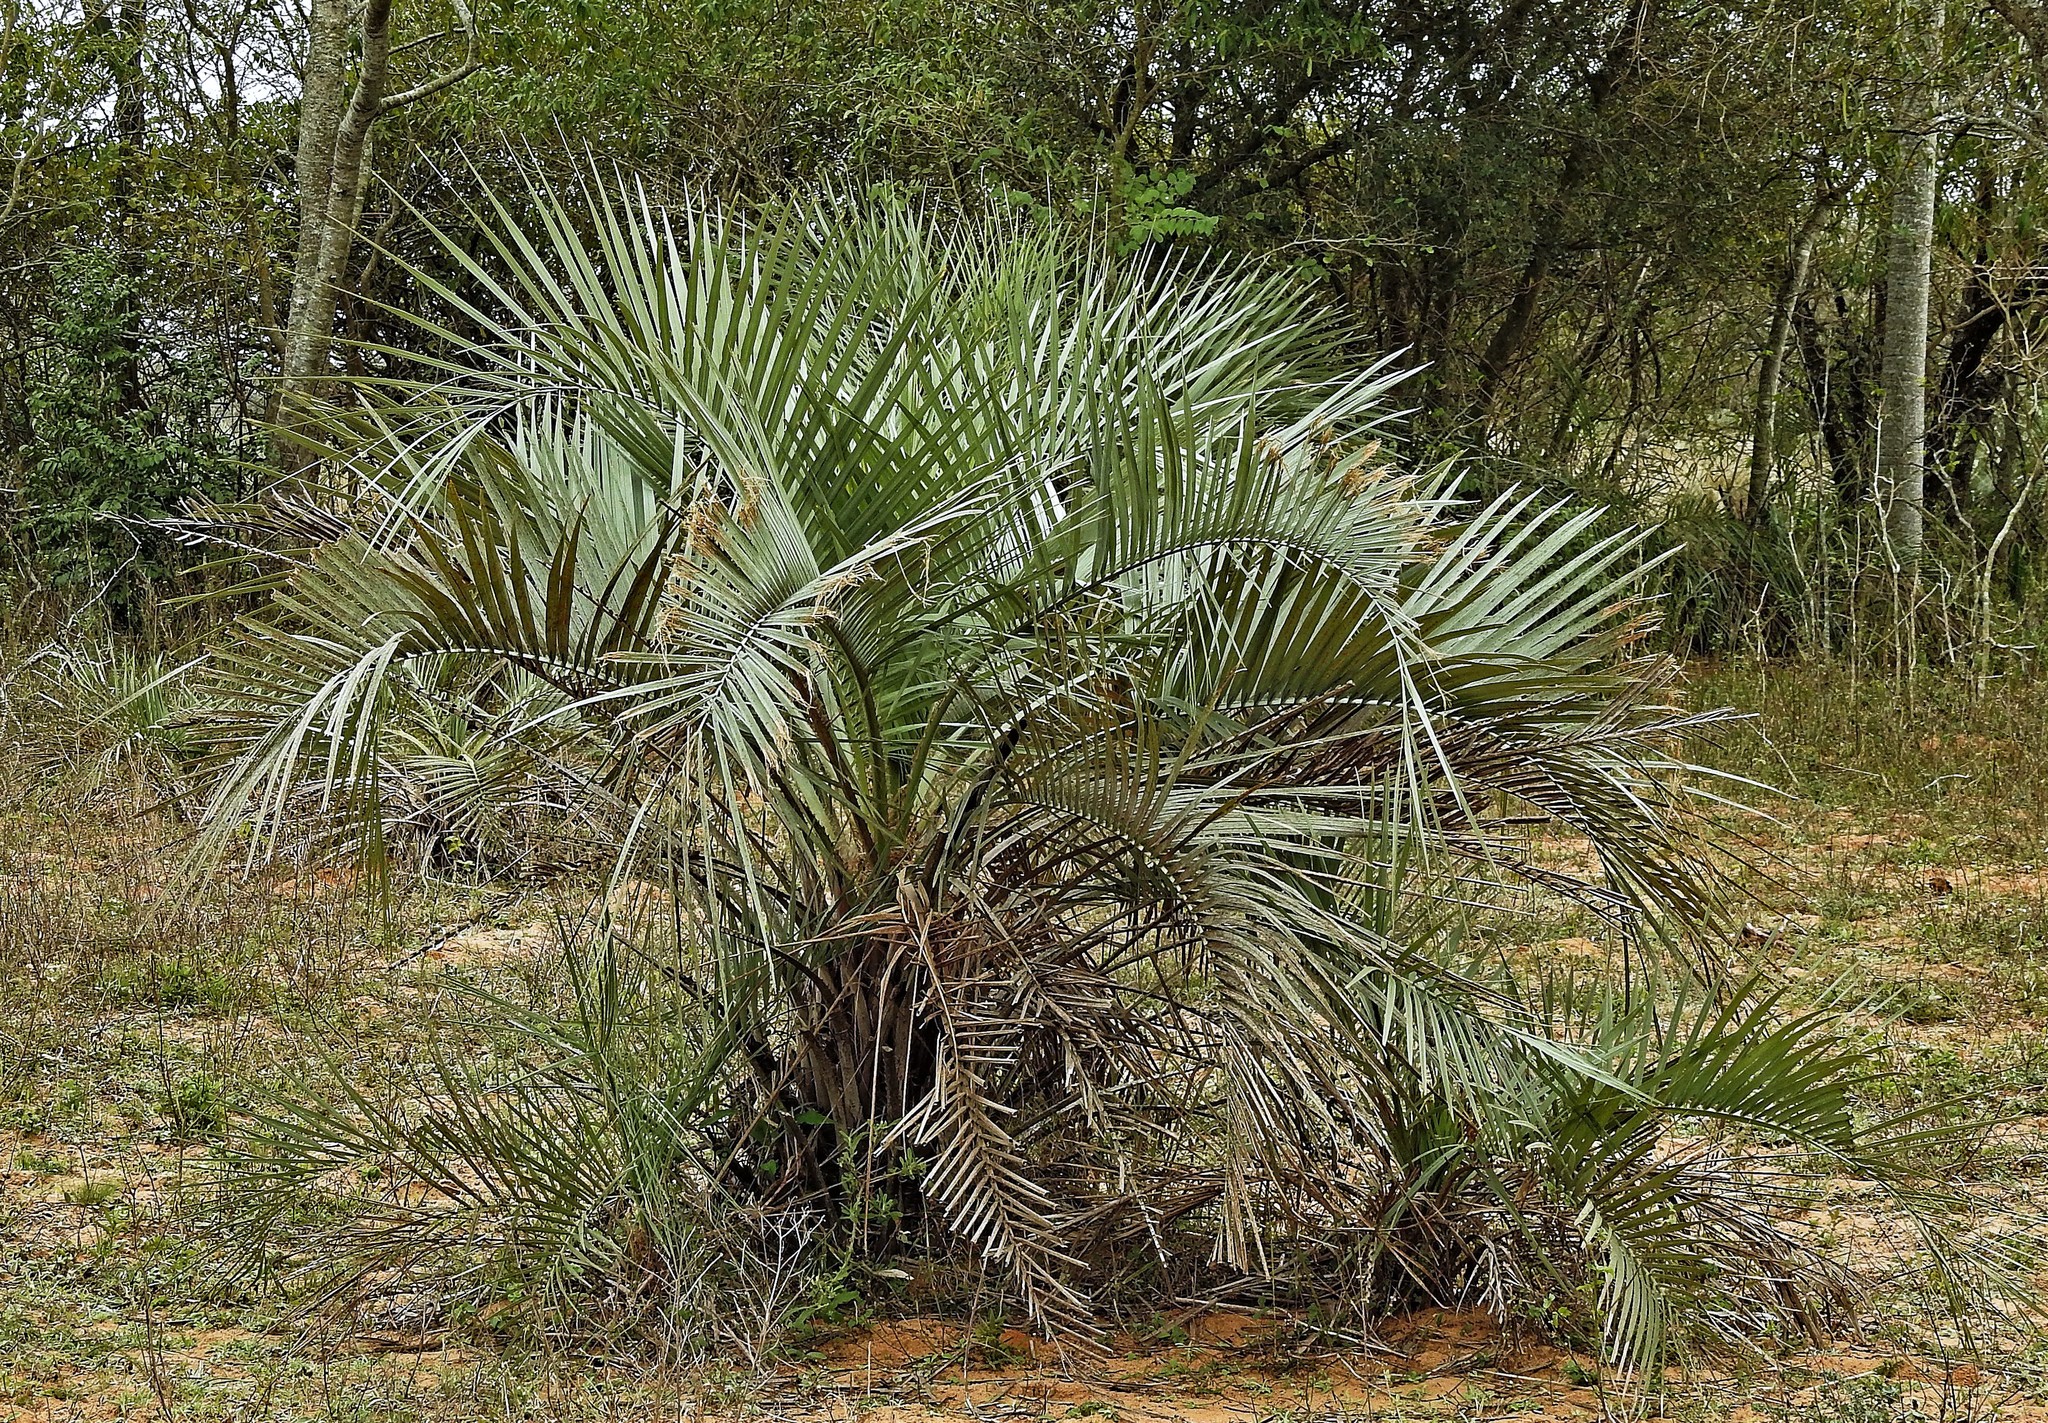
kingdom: Plantae
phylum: Tracheophyta
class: Liliopsida
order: Arecales
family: Arecaceae
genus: Butia
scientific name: Butia paraguayensis
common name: Dwarf yatay palm
